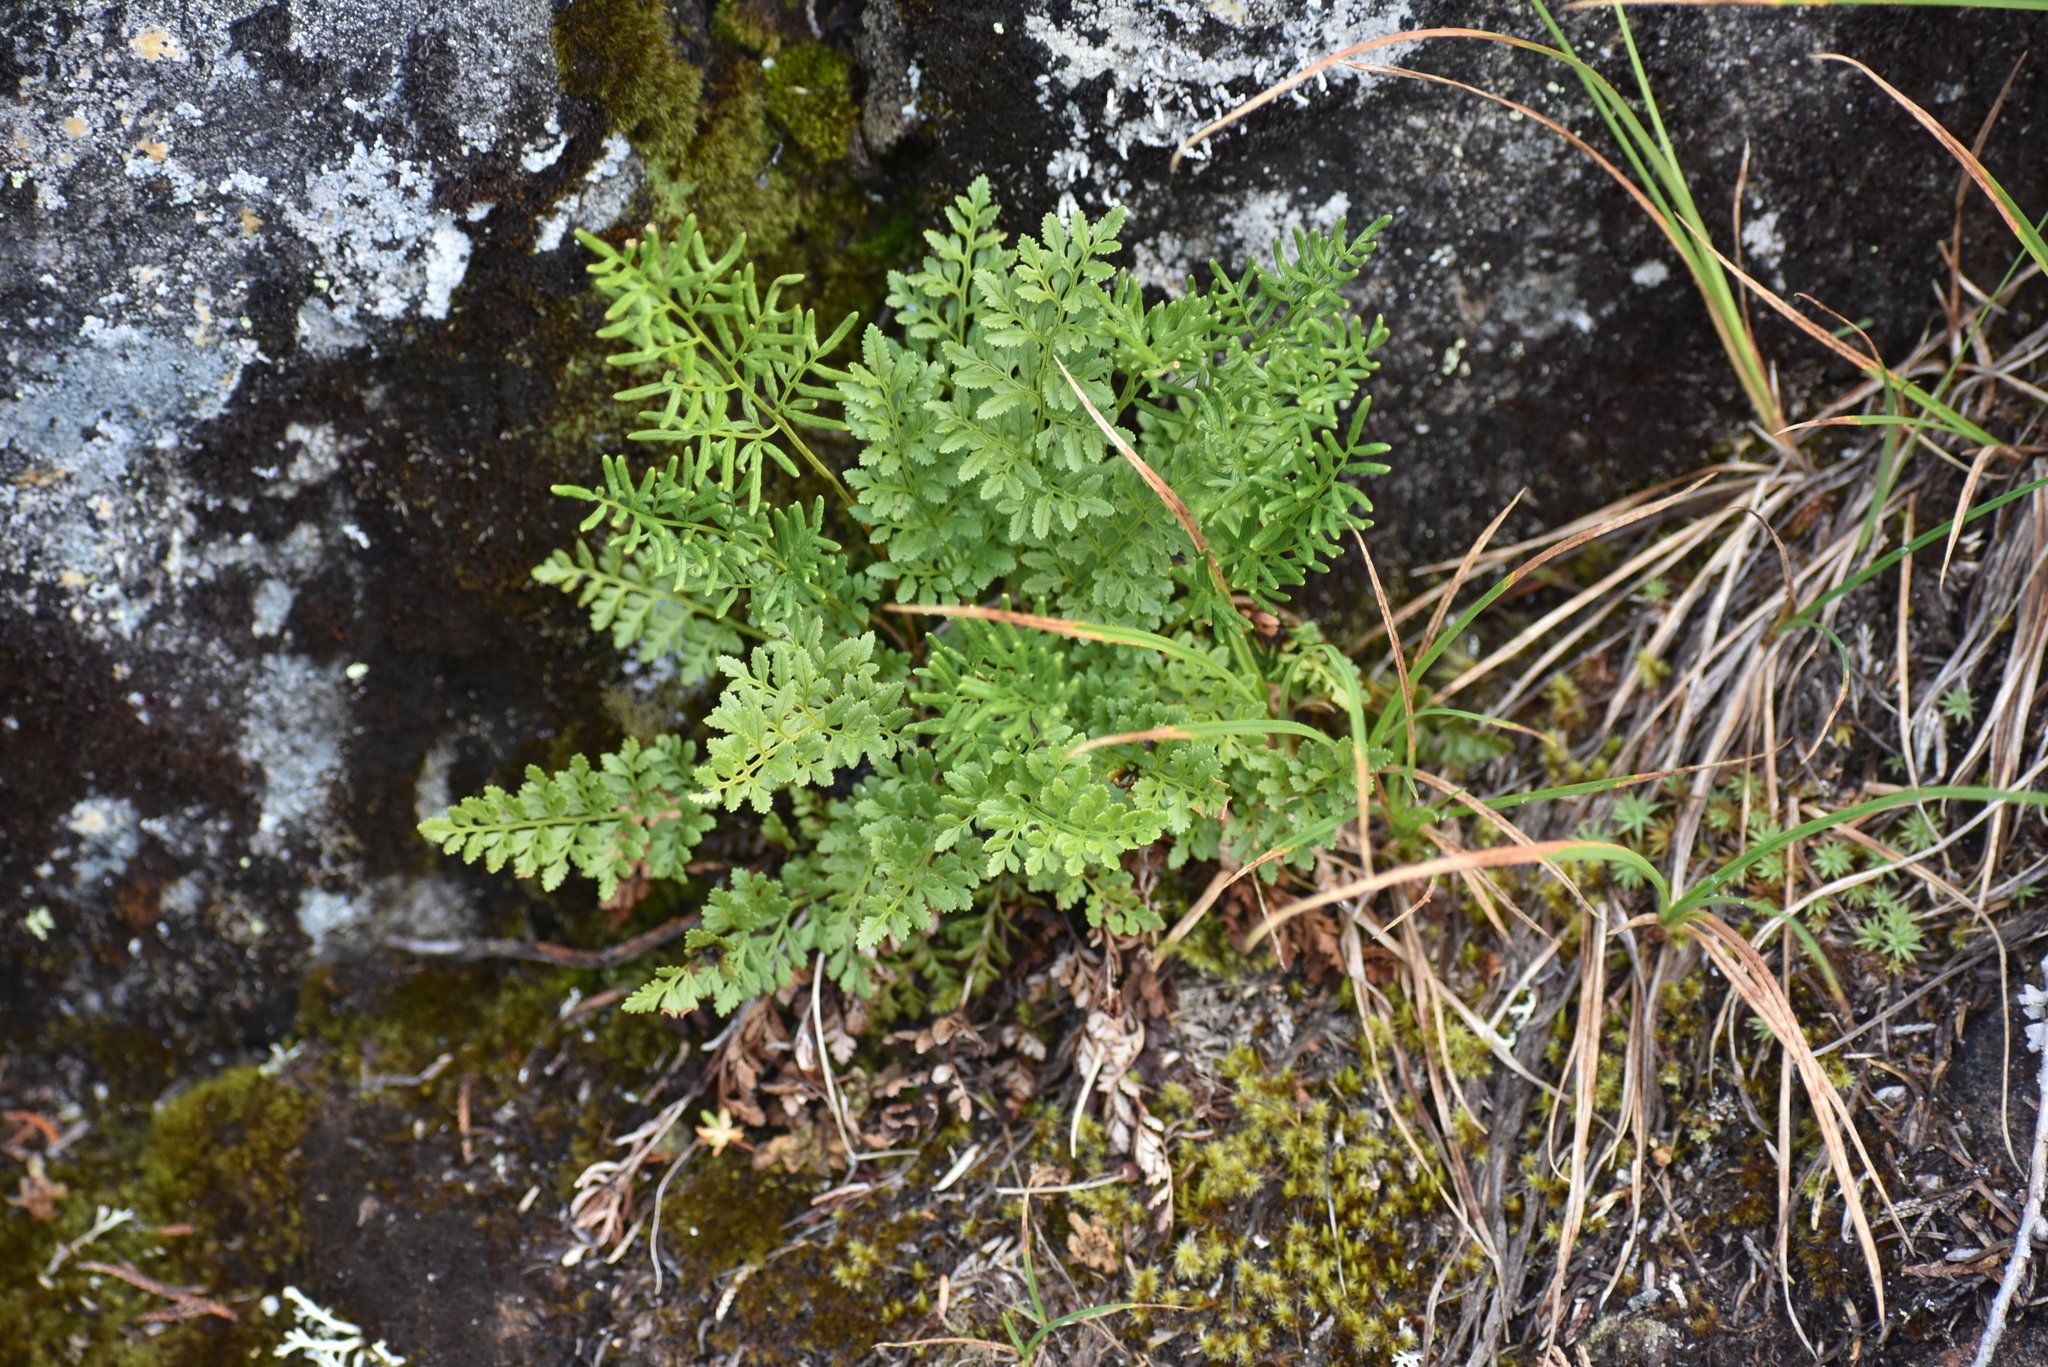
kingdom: Plantae
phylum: Tracheophyta
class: Polypodiopsida
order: Polypodiales
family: Pteridaceae
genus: Cryptogramma
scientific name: Cryptogramma acrostichoides
